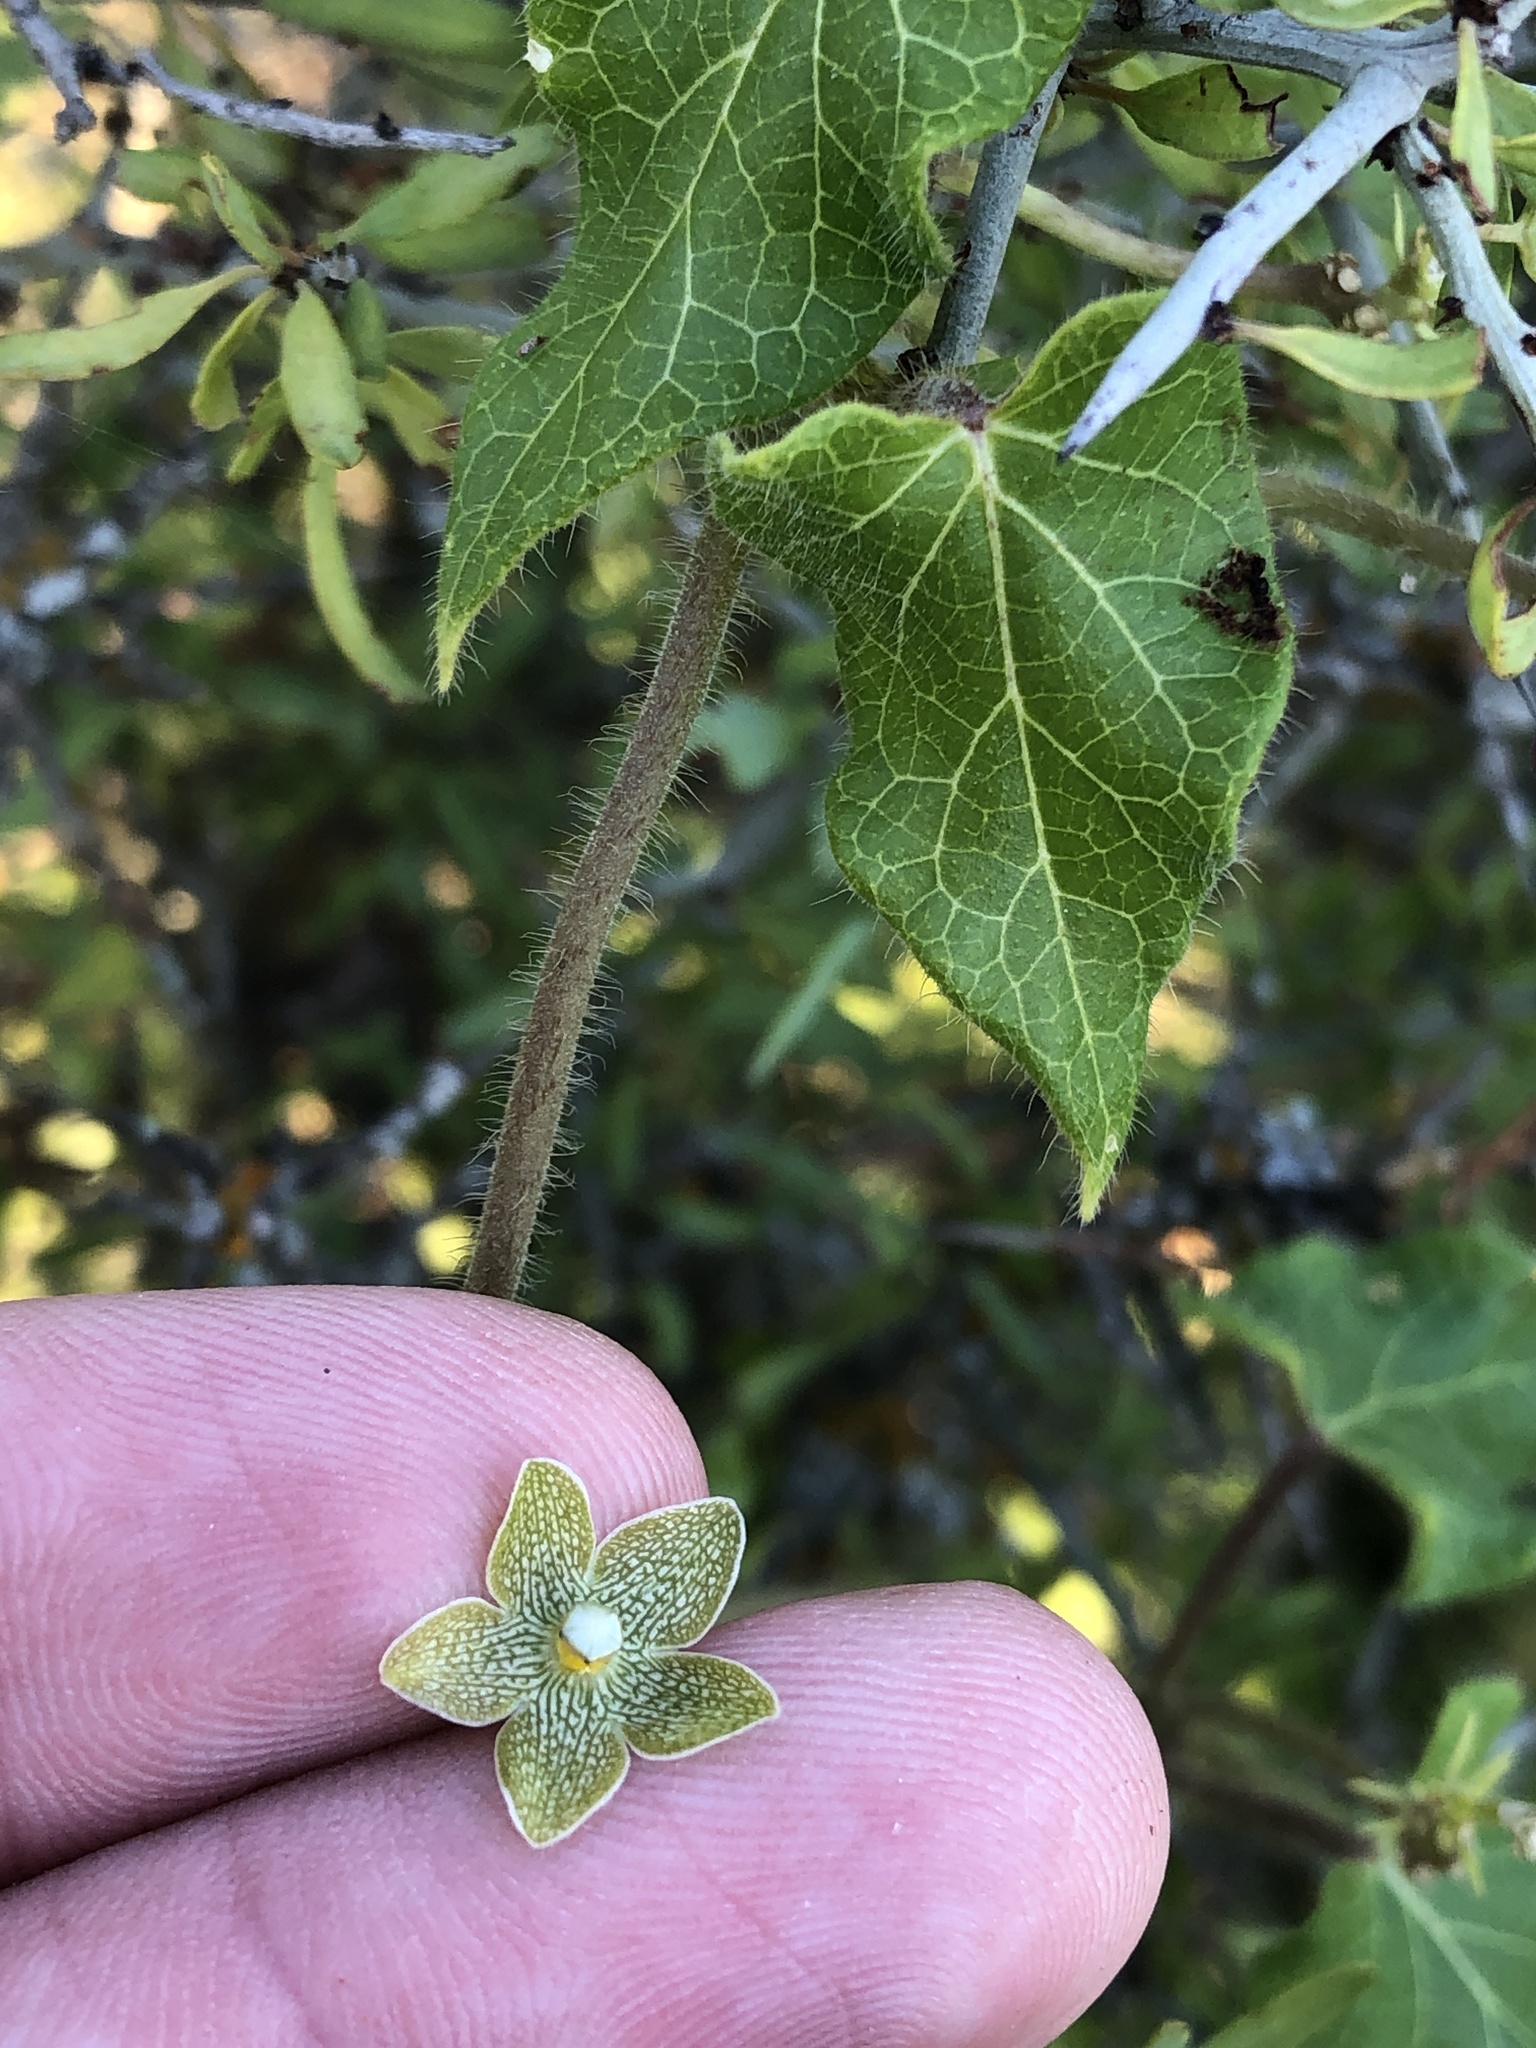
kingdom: Plantae
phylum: Tracheophyta
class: Magnoliopsida
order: Gentianales
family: Apocynaceae
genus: Dictyanthus
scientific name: Dictyanthus reticulatus
